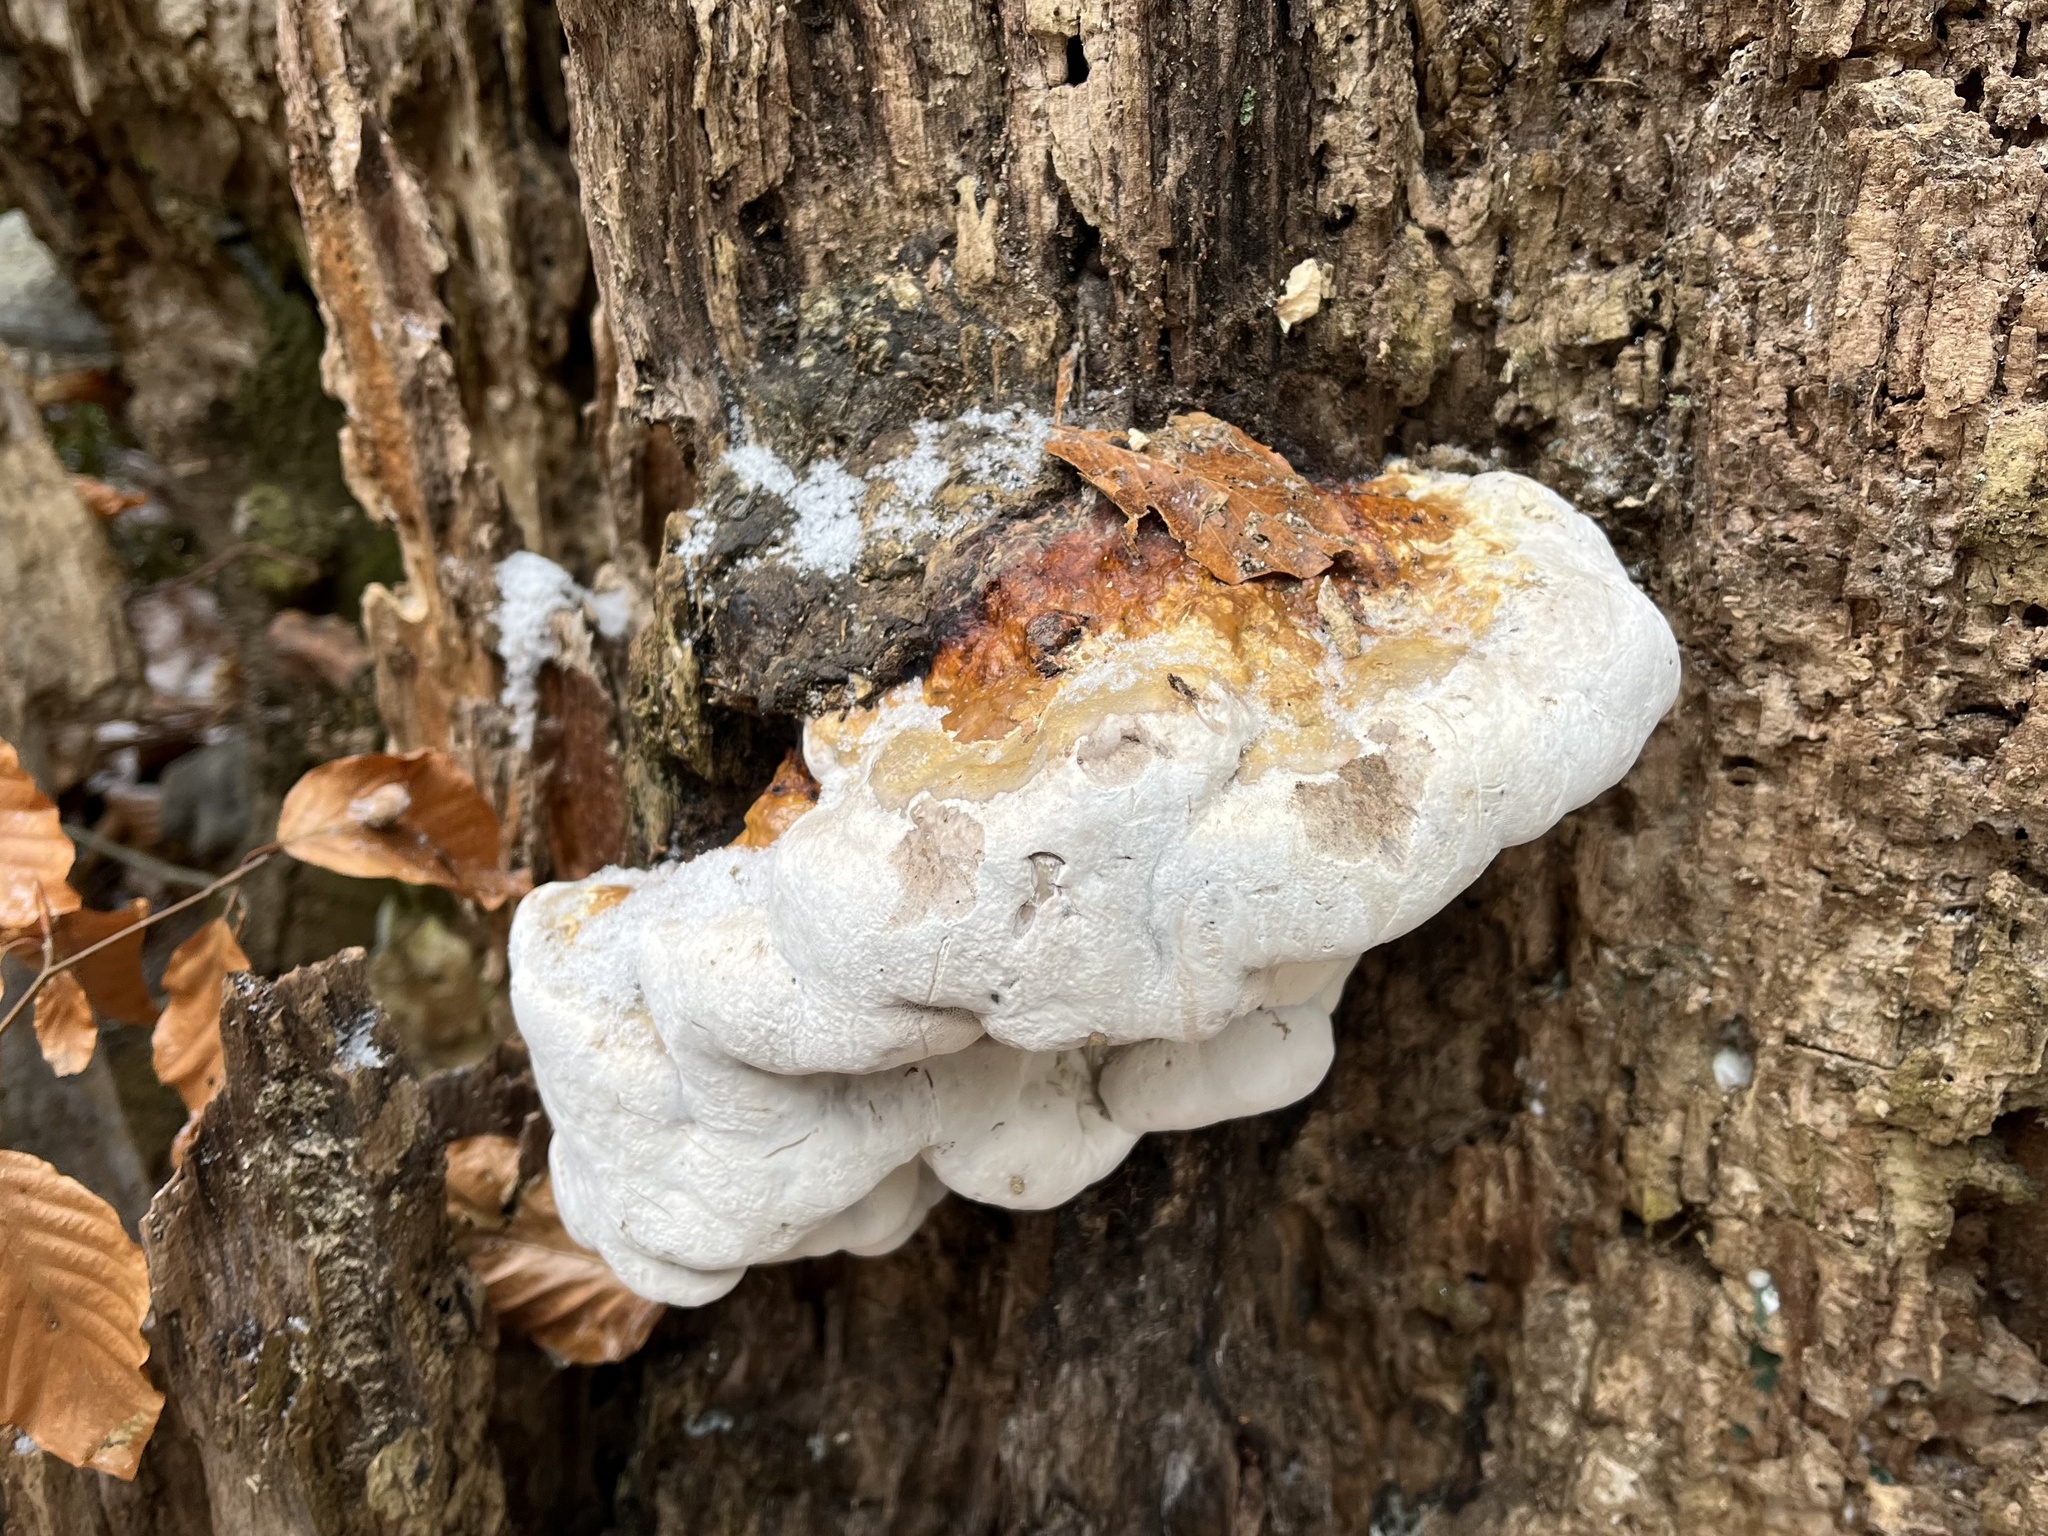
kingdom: Fungi
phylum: Basidiomycota
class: Agaricomycetes
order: Polyporales
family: Fomitopsidaceae
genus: Fomitopsis
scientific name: Fomitopsis pinicola
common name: Red-belted bracket
